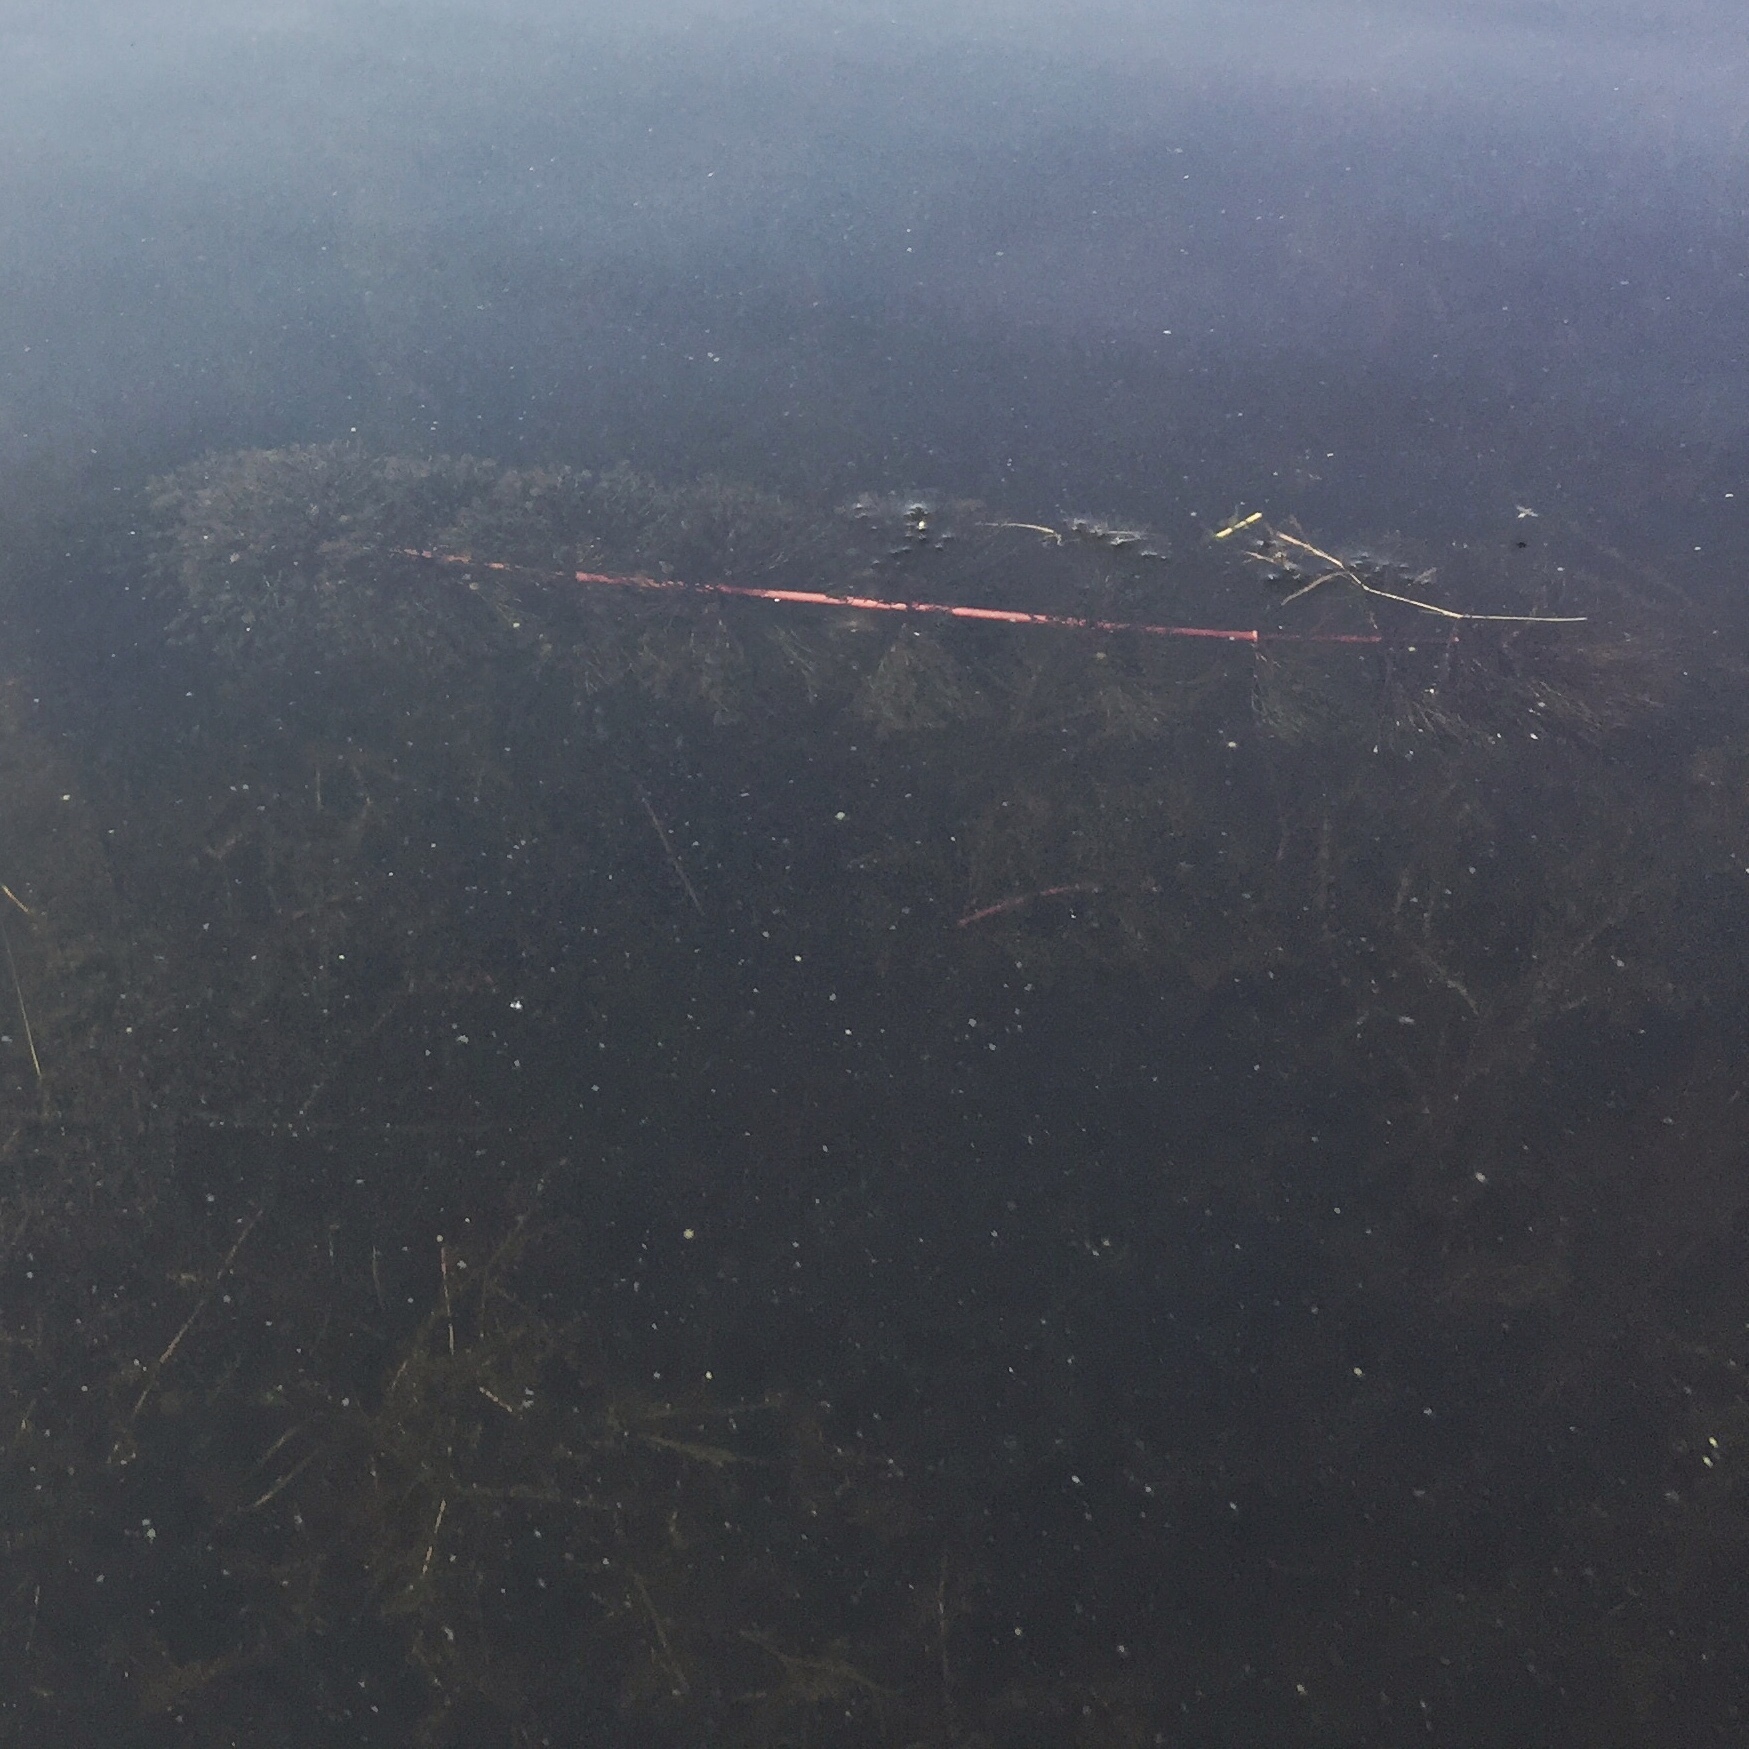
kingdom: Plantae
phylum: Tracheophyta
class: Magnoliopsida
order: Asterales
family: Asteraceae
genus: Bidens
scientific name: Bidens beckii
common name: Beck's beggarticks
